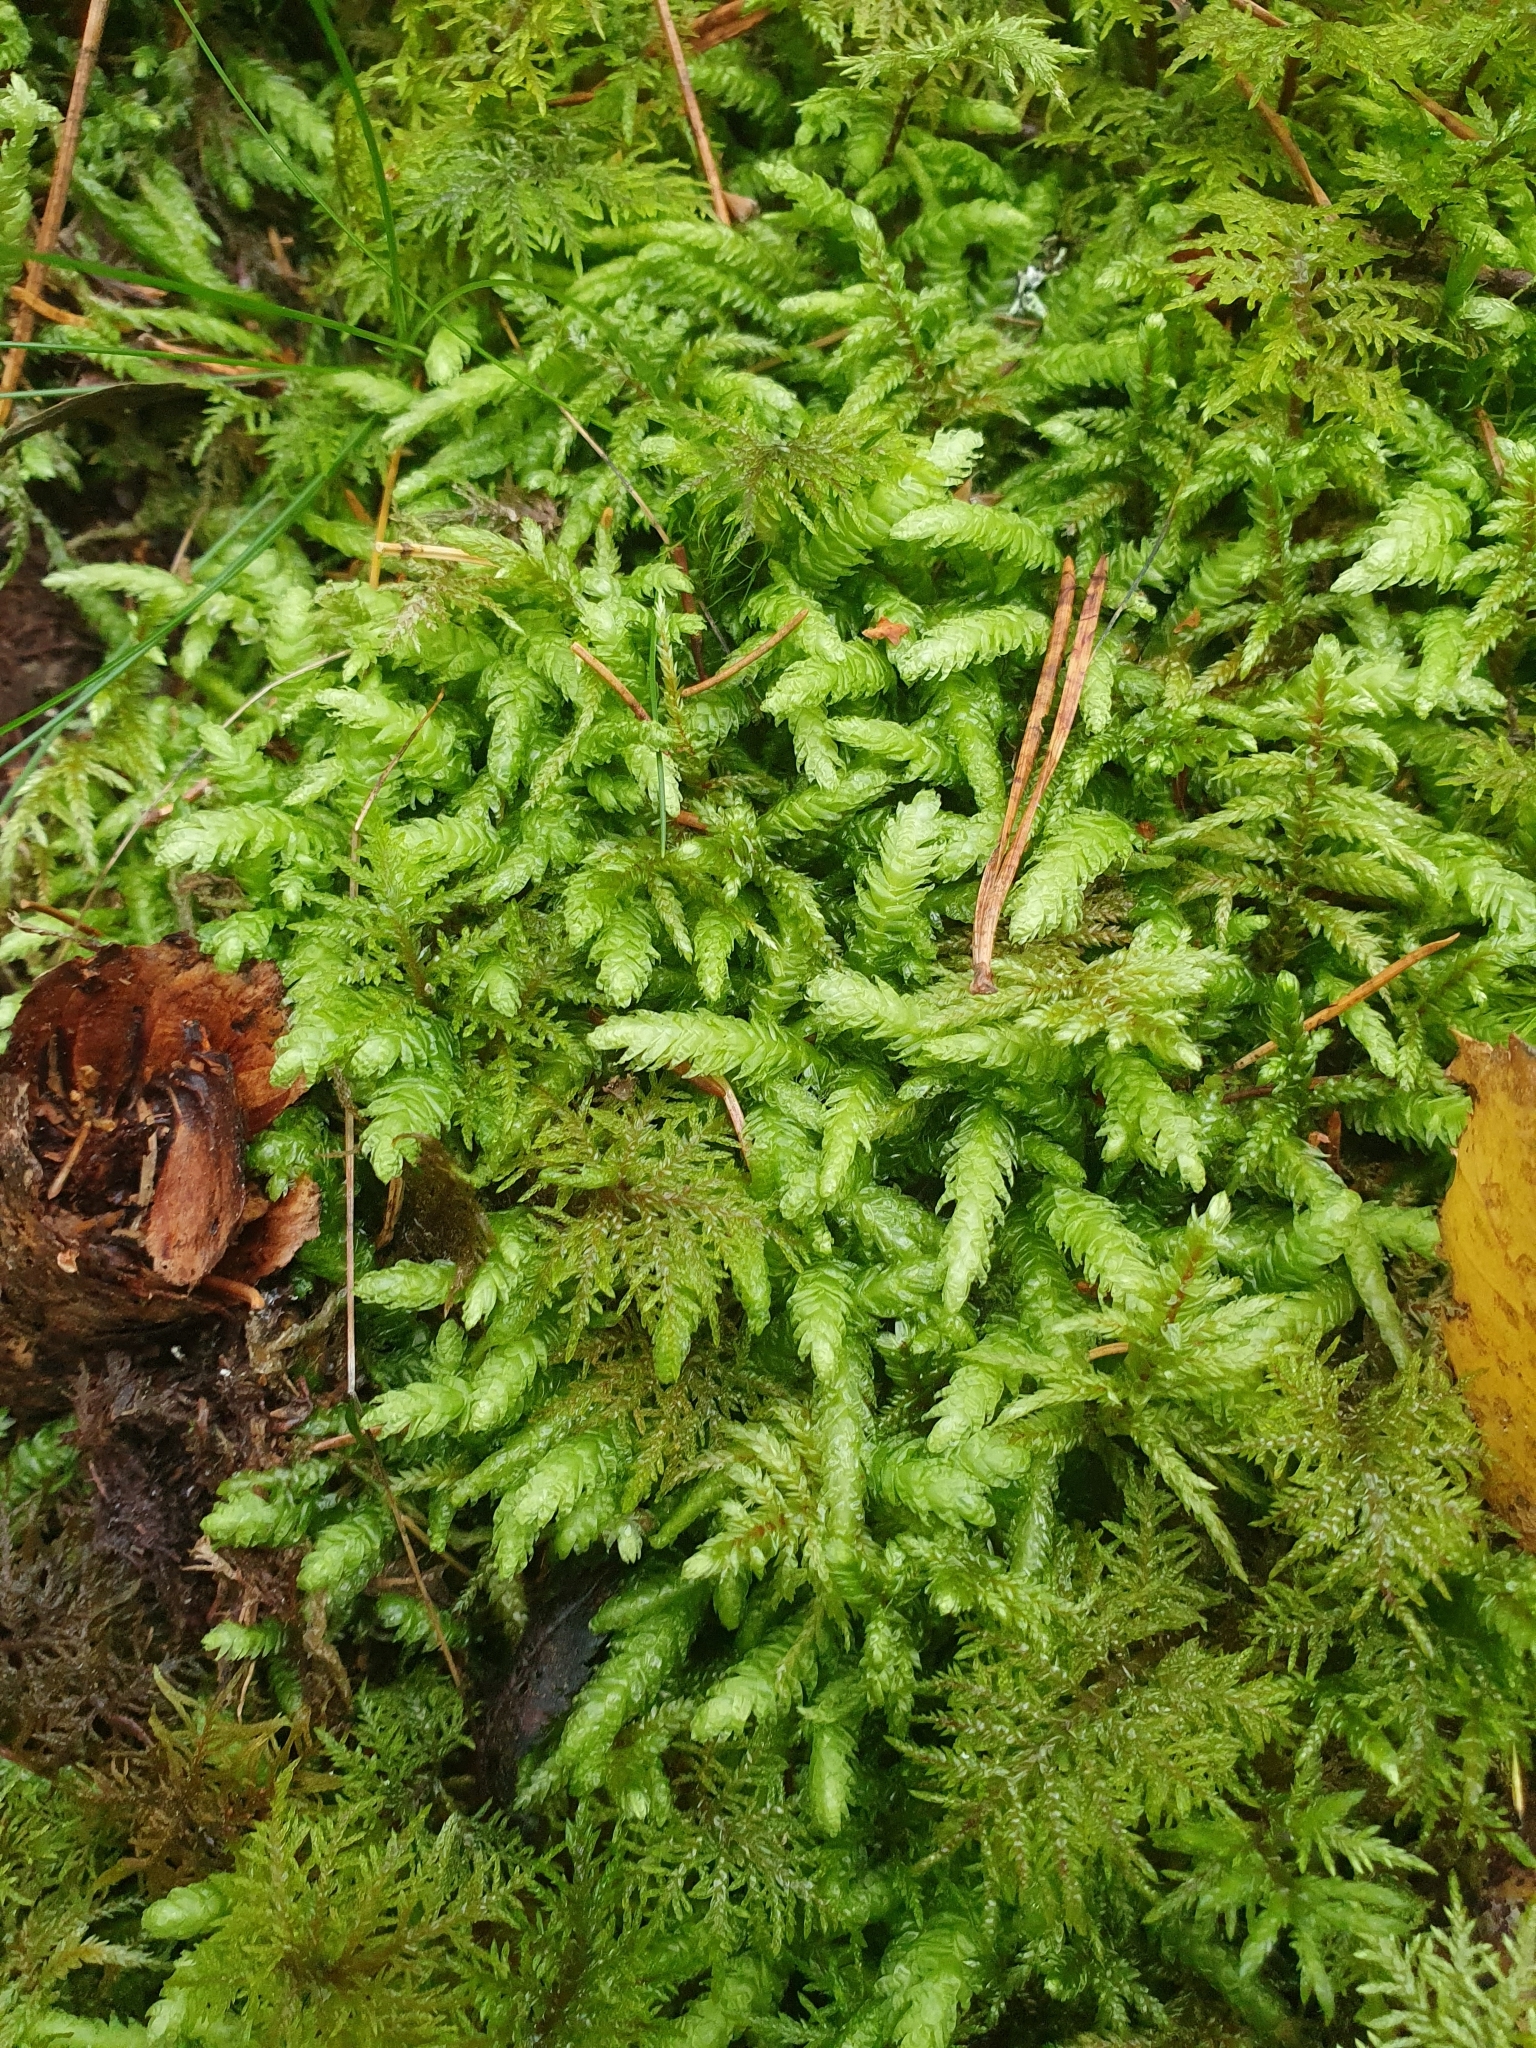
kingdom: Plantae
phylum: Bryophyta
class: Bryopsida
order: Hypnales
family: Plagiotheciaceae
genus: Plagiothecium
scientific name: Plagiothecium undulatum
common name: Waved silk-moss
